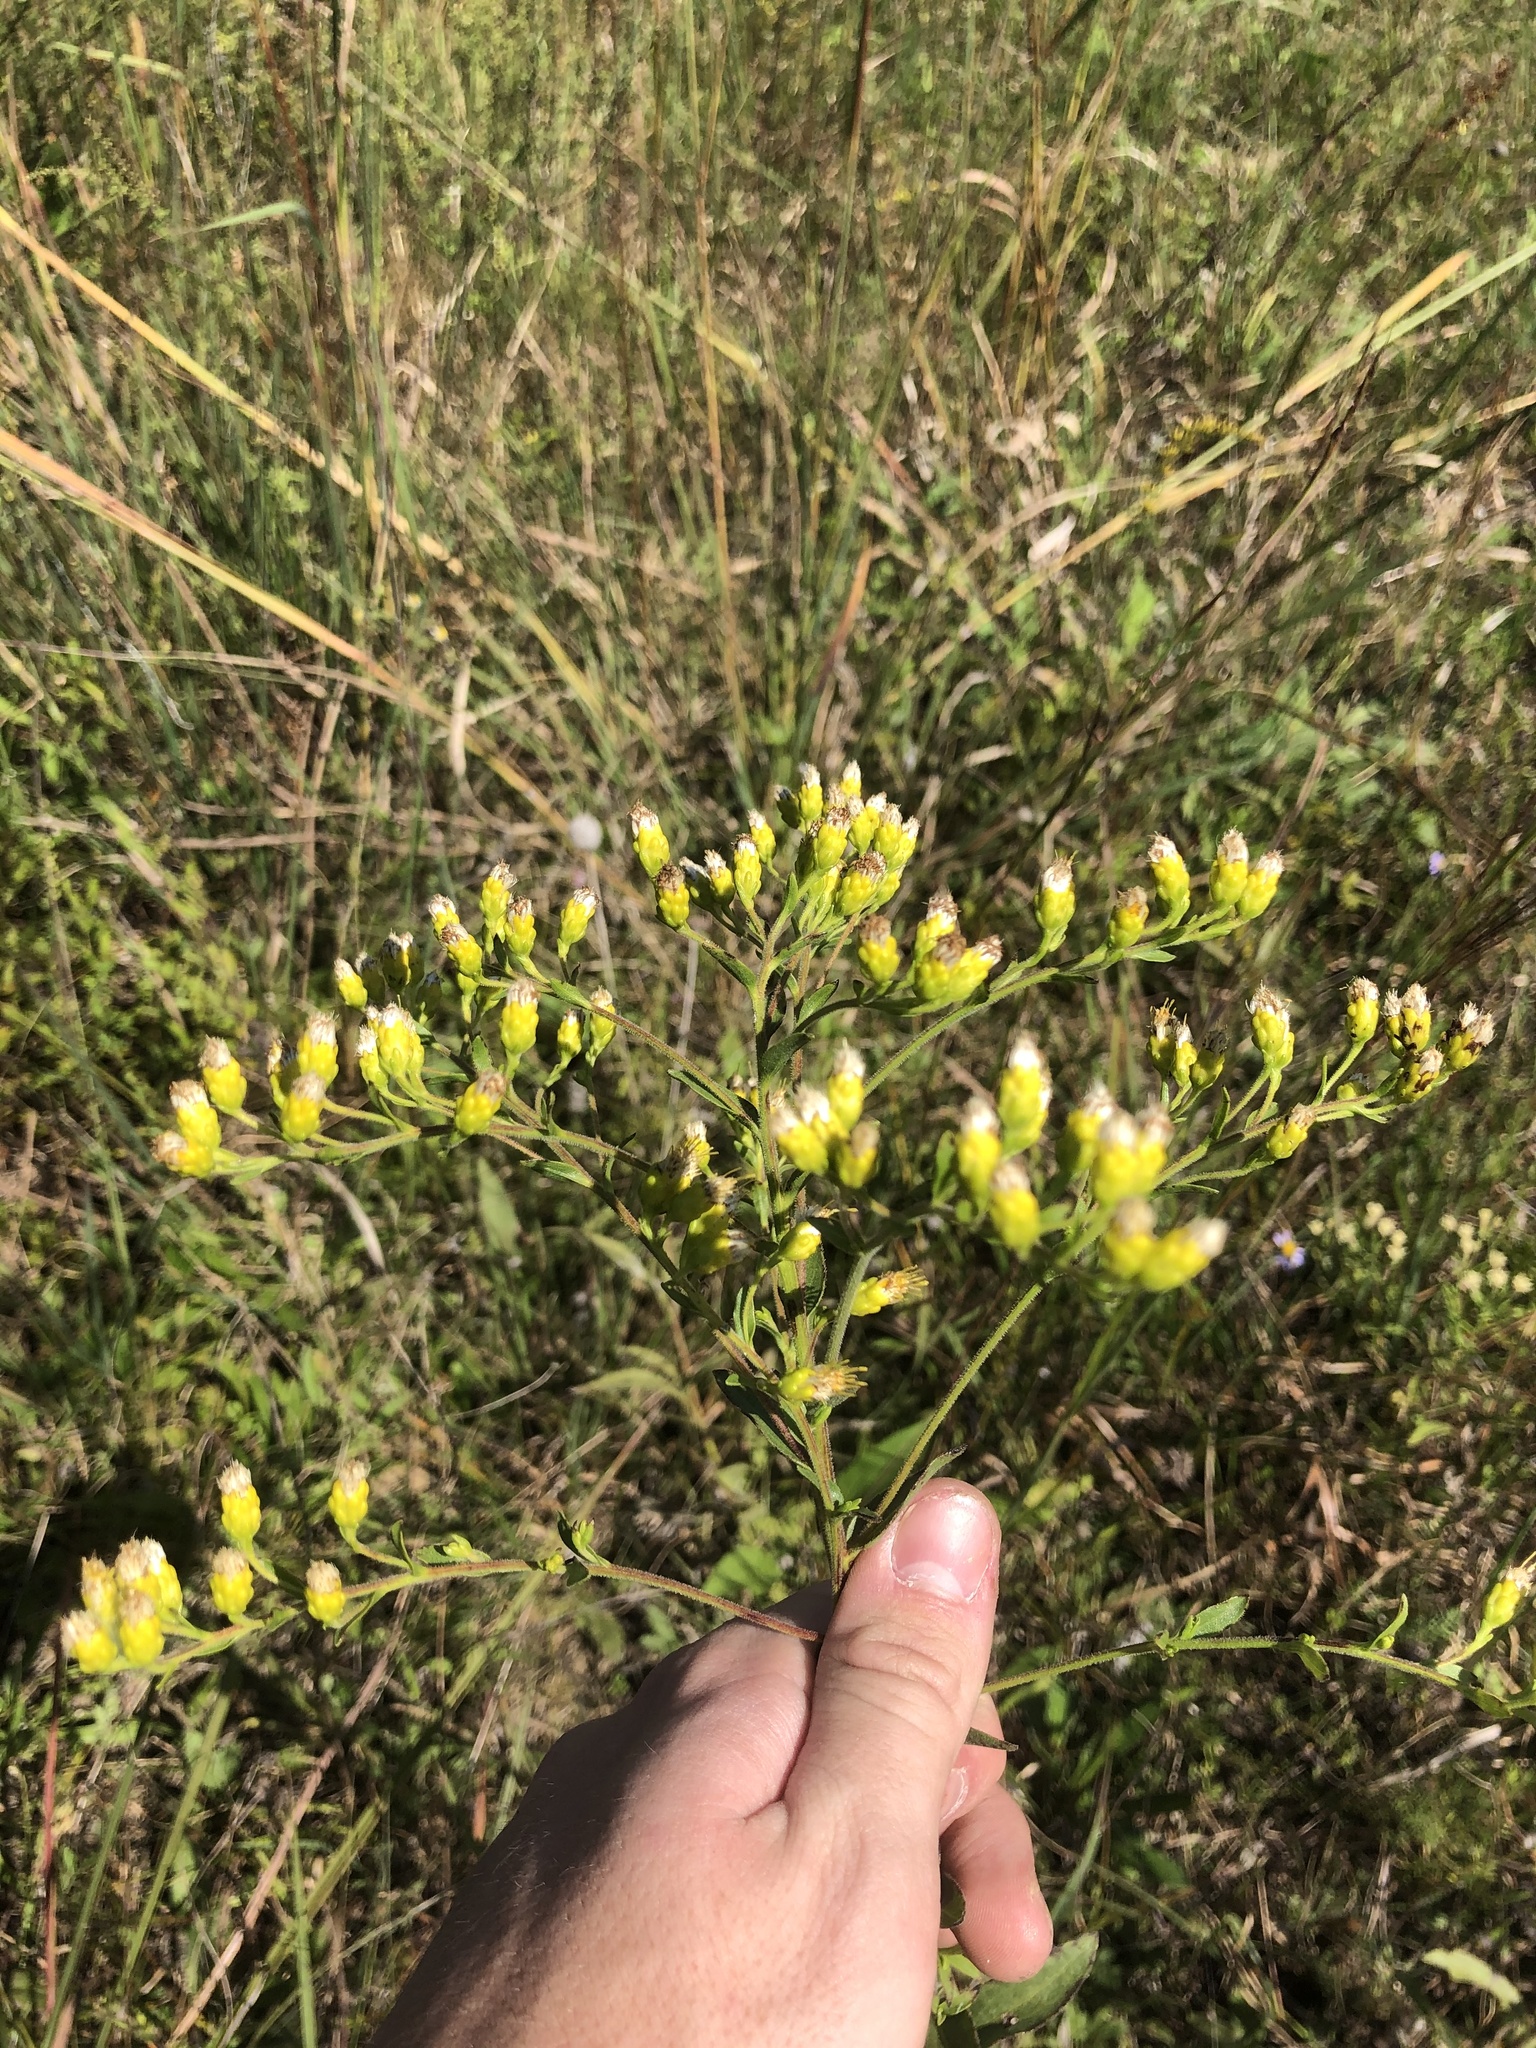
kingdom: Plantae
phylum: Tracheophyta
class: Magnoliopsida
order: Asterales
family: Asteraceae
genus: Solidago
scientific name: Solidago rigida
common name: Rigid goldenrod
